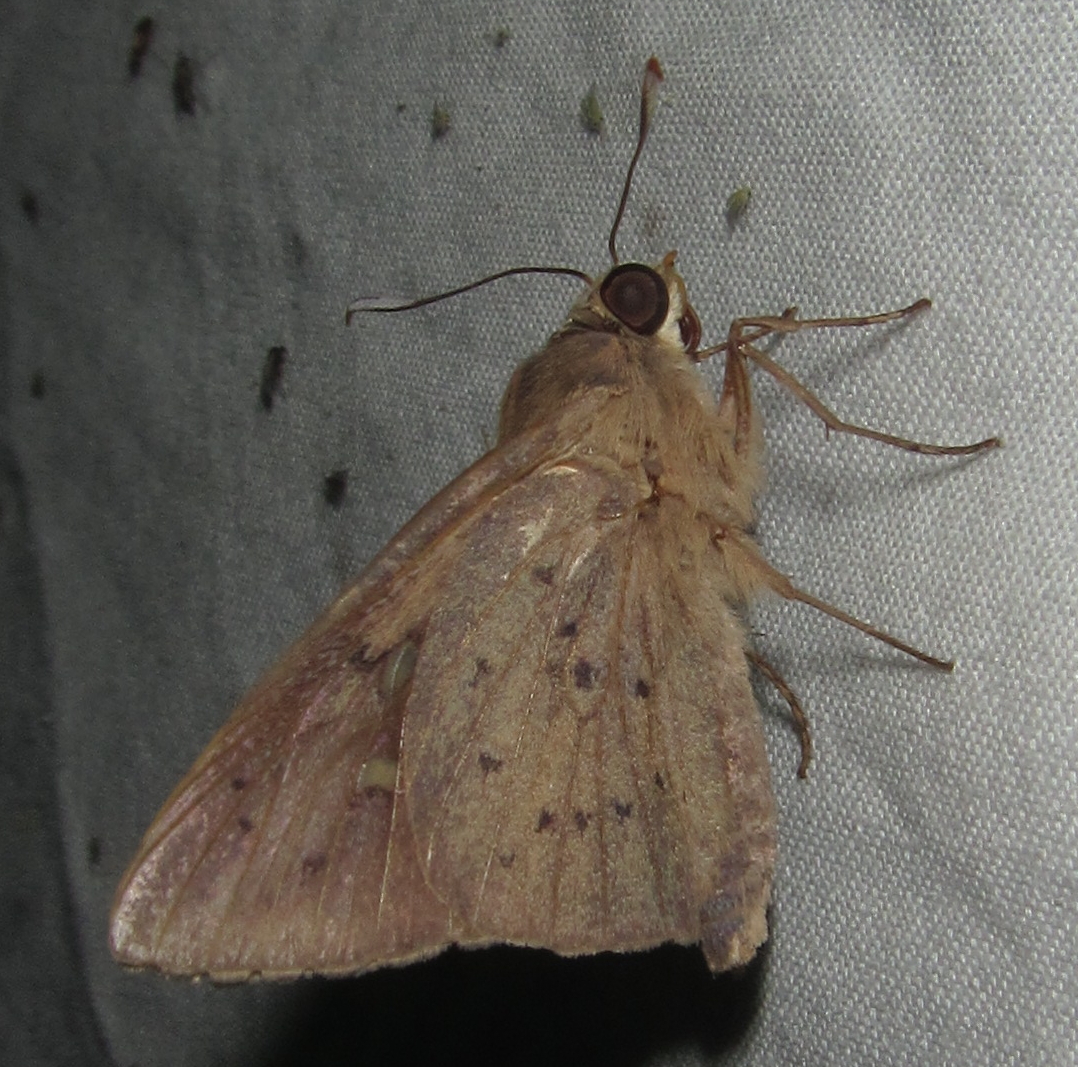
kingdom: Animalia
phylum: Arthropoda
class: Insecta
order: Lepidoptera
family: Hesperiidae
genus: Zophopetes
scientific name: Zophopetes dysmephila
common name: Palm-tree nightfighter
